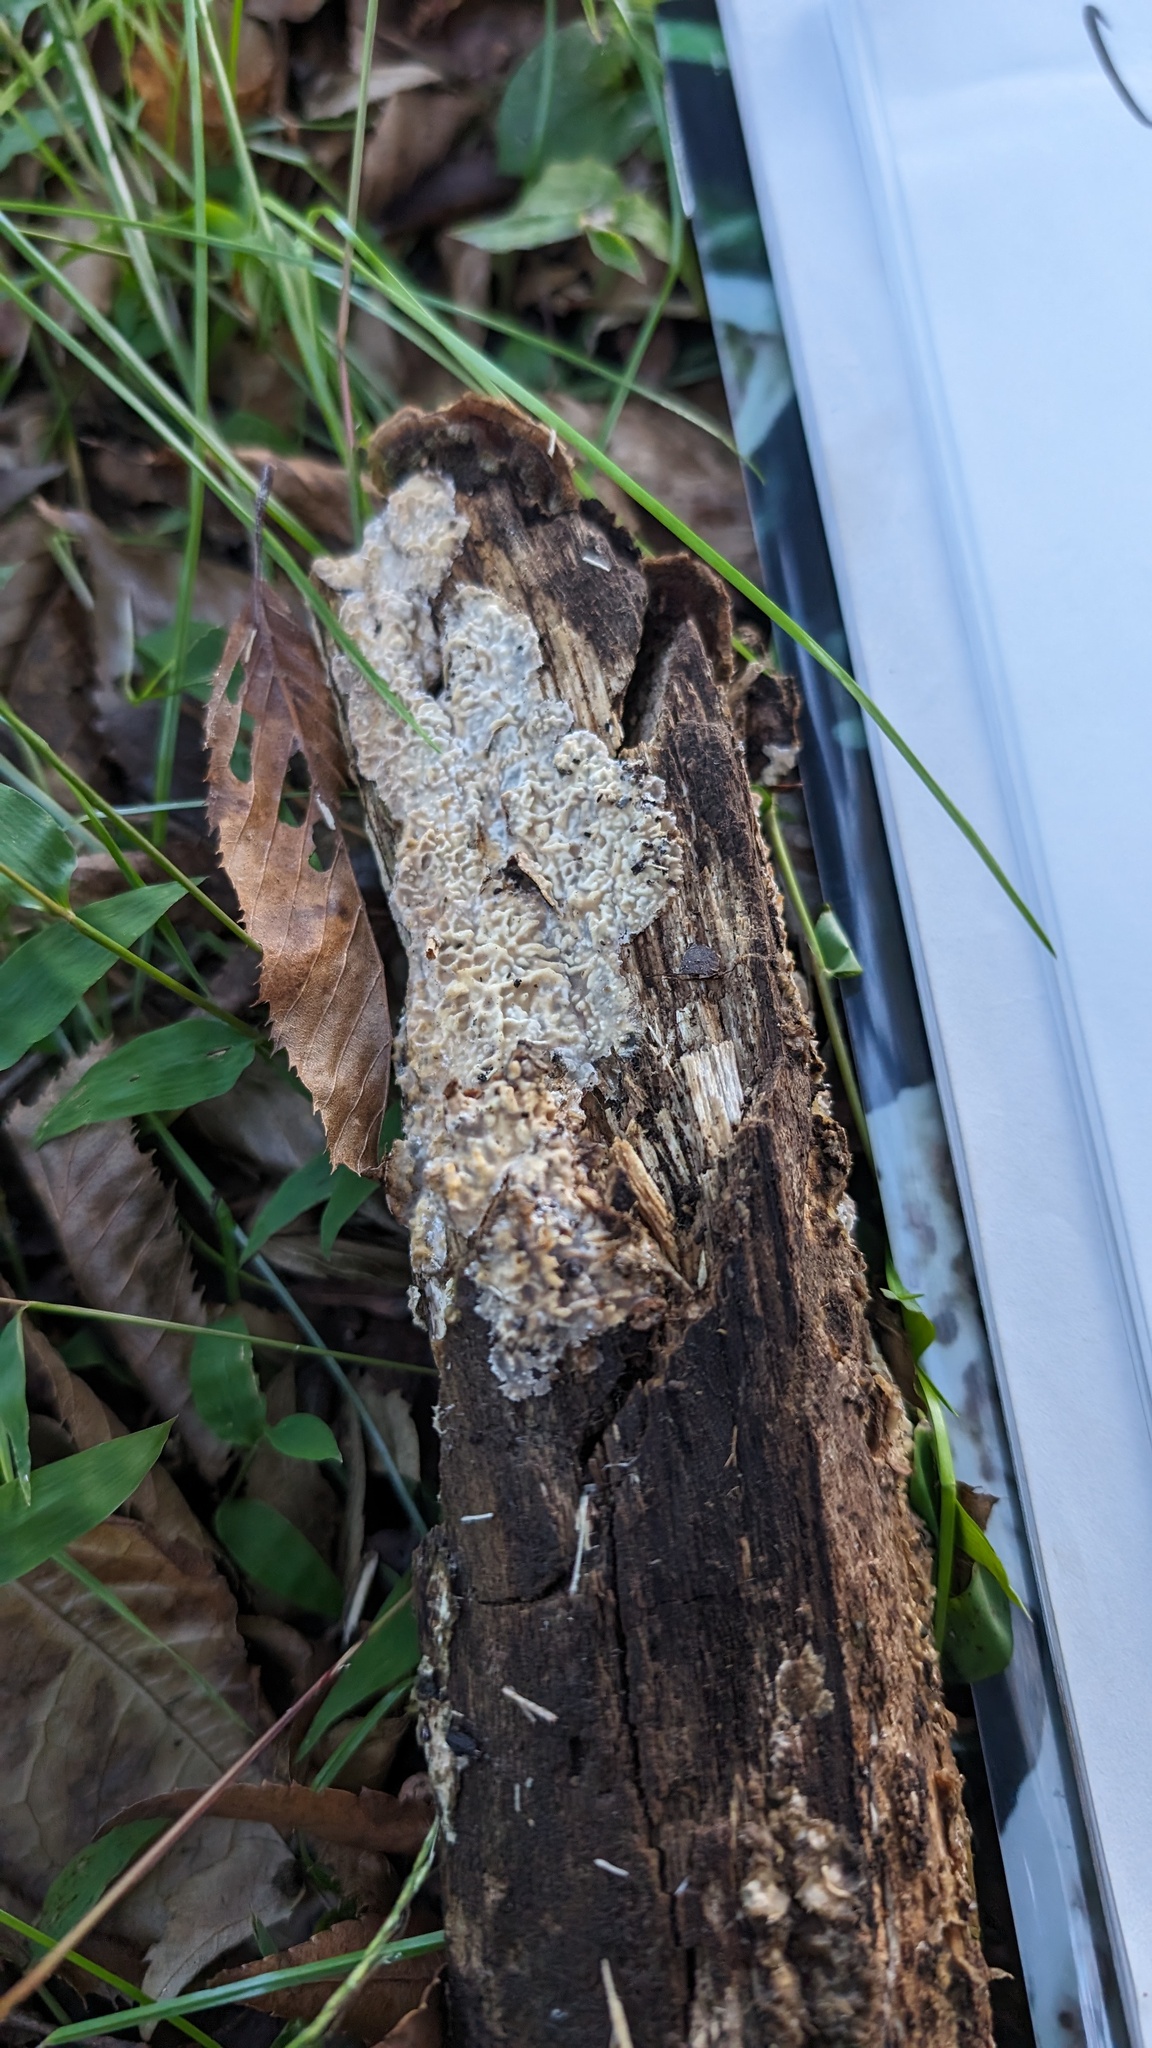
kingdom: Fungi
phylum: Basidiomycota
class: Agaricomycetes
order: Polyporales
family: Polyporaceae
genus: Lopharia
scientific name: Lopharia cinerascens
